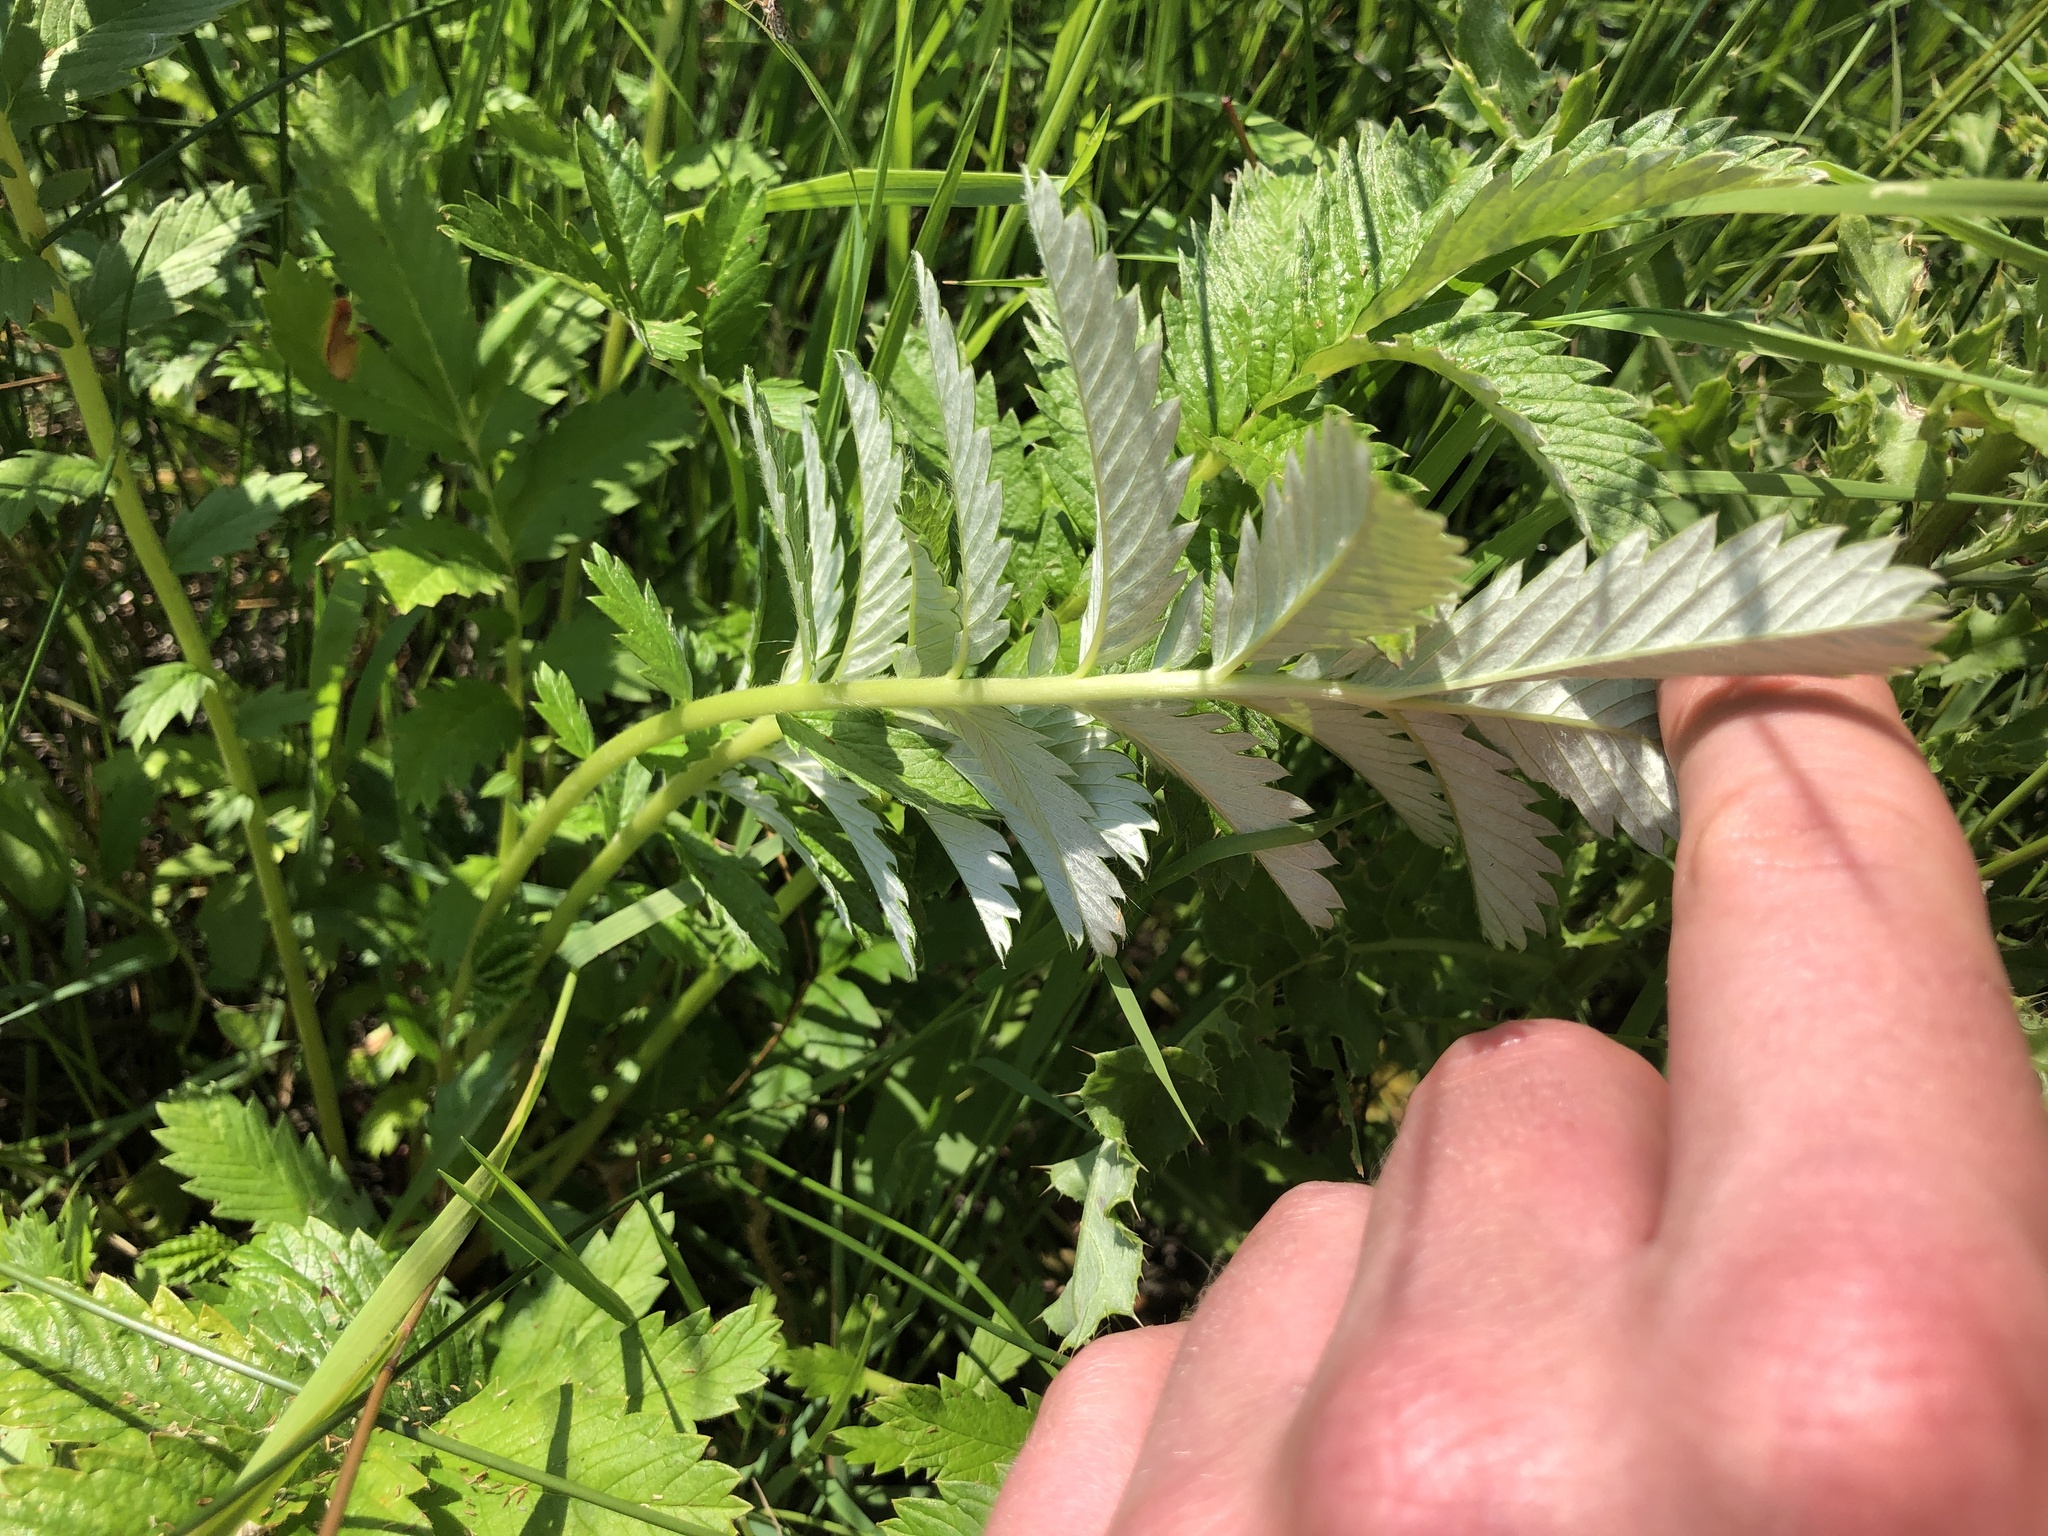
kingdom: Plantae
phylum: Tracheophyta
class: Magnoliopsida
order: Rosales
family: Rosaceae
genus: Argentina
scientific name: Argentina anserina
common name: Common silverweed
